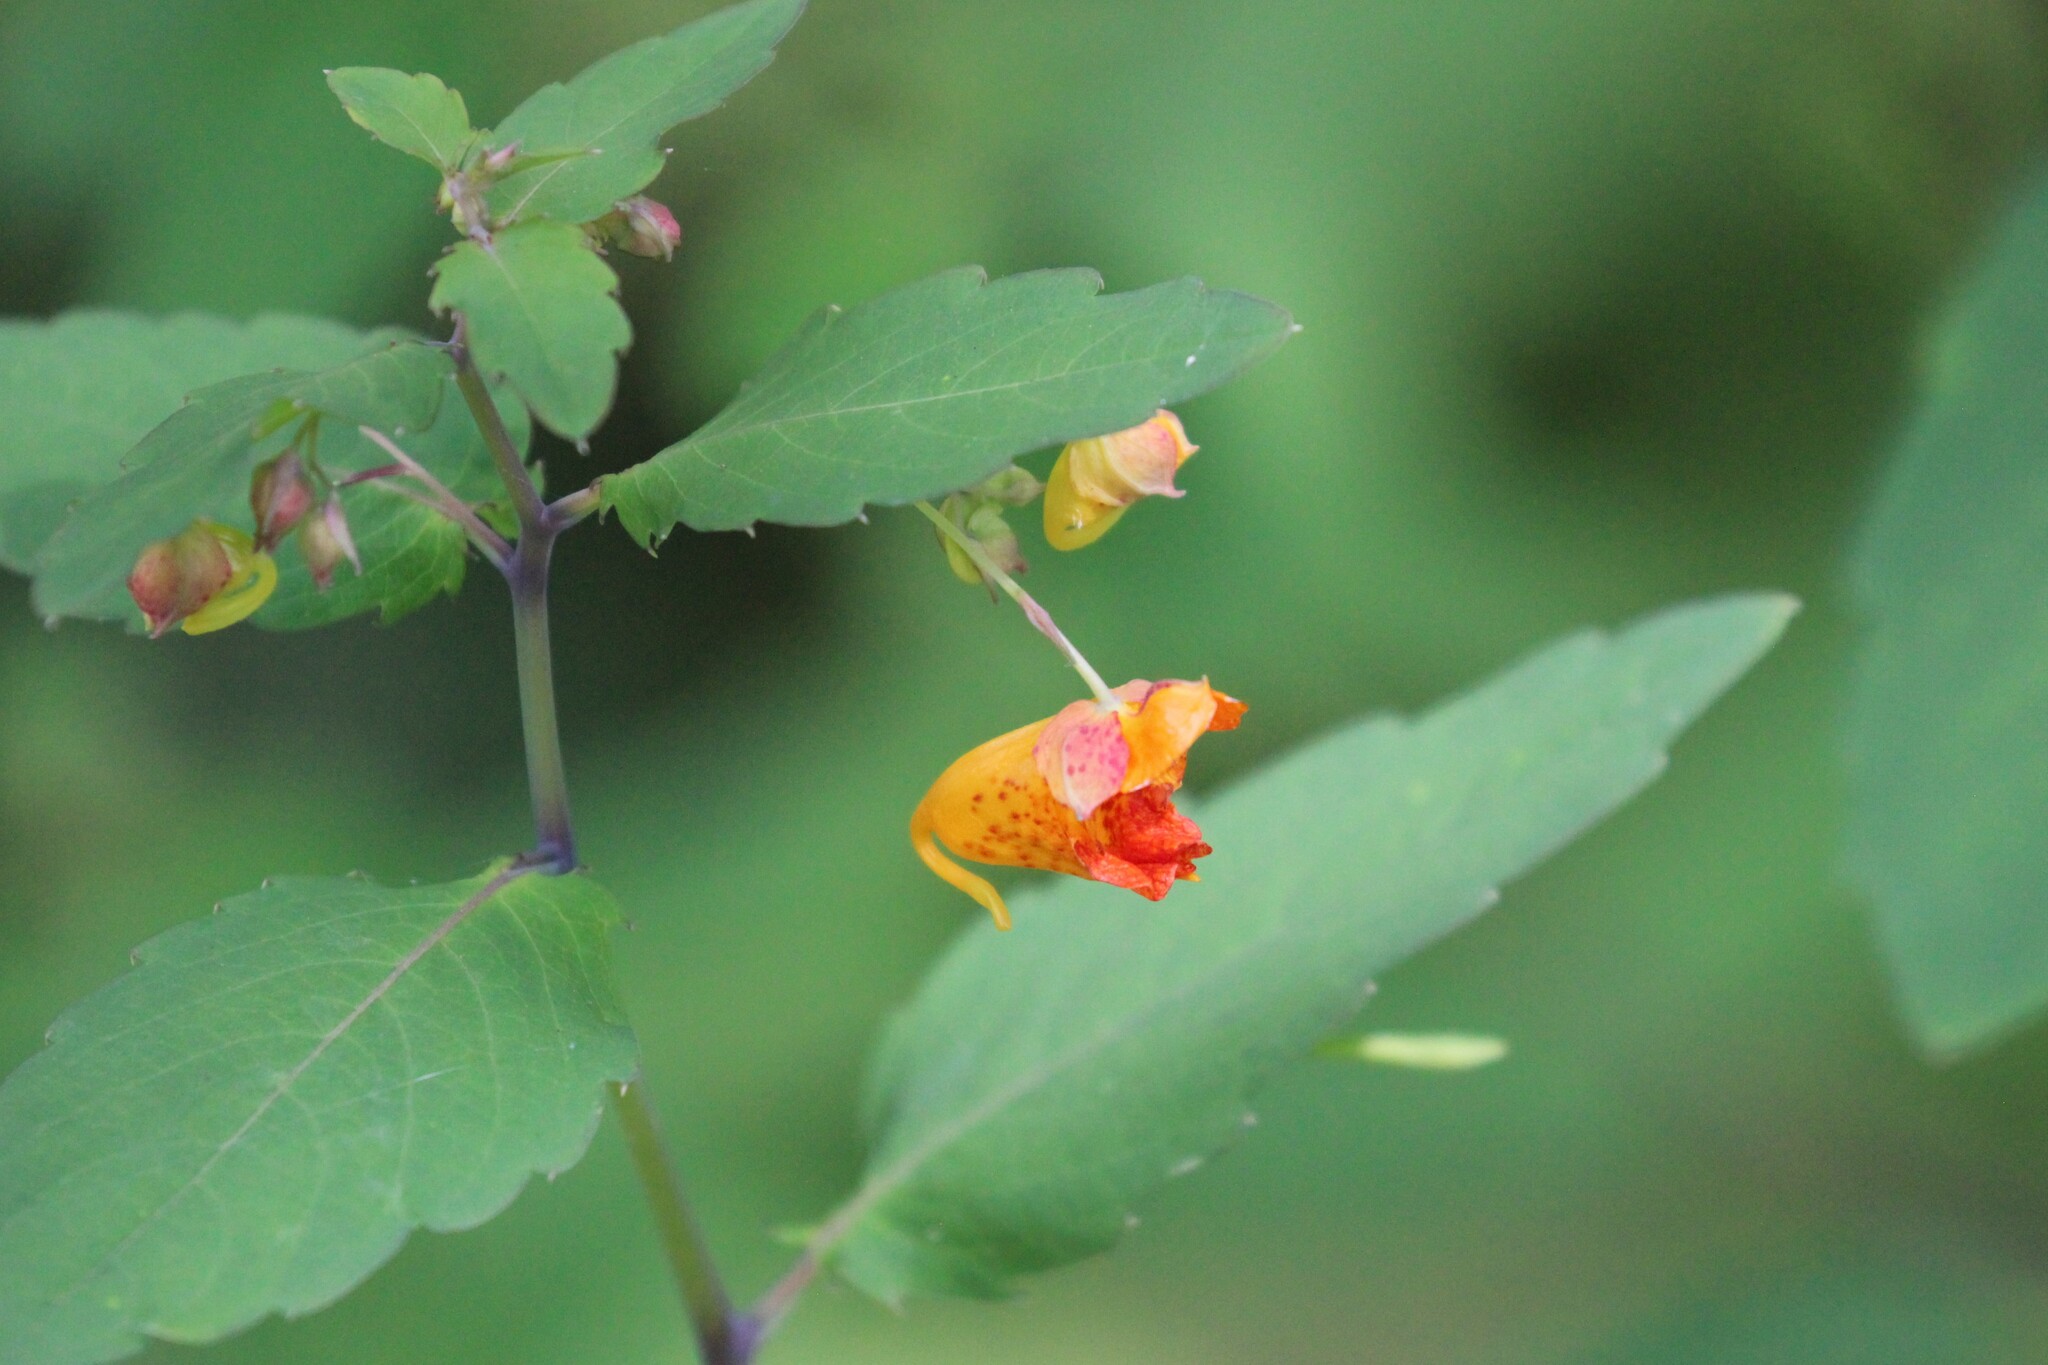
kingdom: Plantae
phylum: Tracheophyta
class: Magnoliopsida
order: Ericales
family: Balsaminaceae
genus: Impatiens
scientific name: Impatiens capensis
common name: Orange balsam
